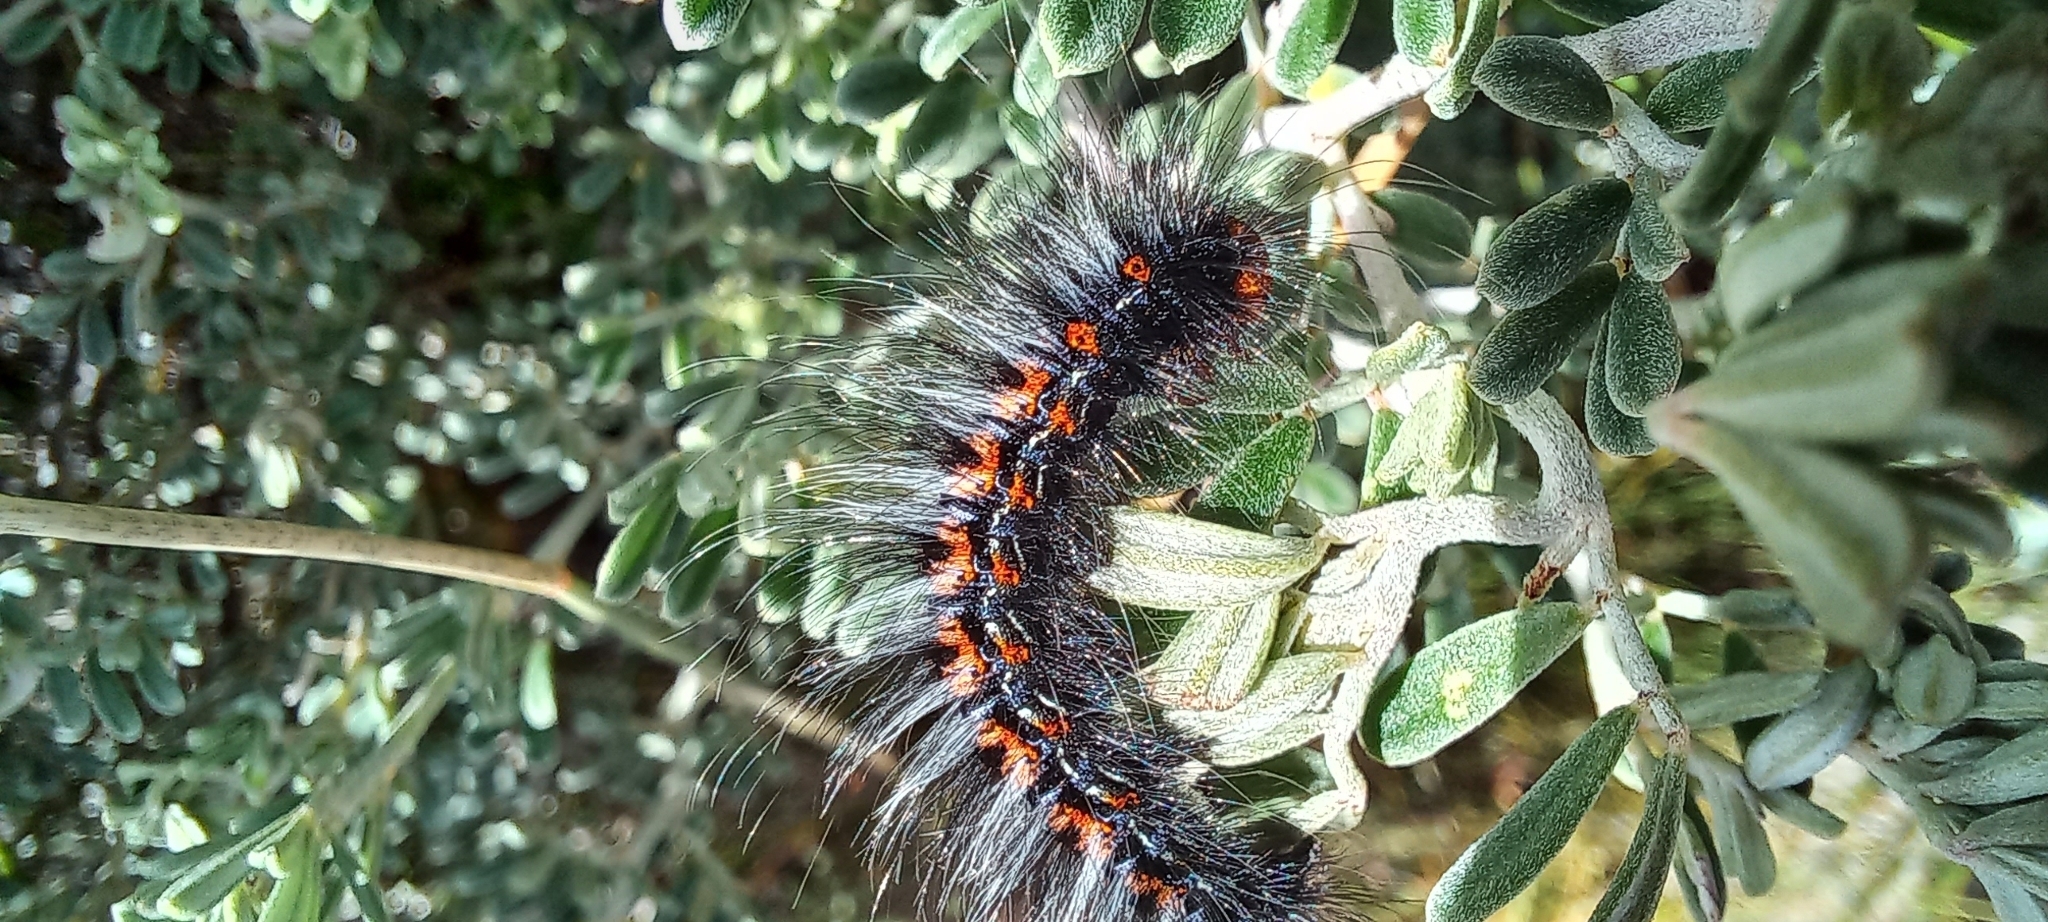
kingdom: Animalia
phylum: Arthropoda
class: Insecta
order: Lepidoptera
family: Lasiocampidae
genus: Mesocelis
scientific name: Mesocelis monticola
